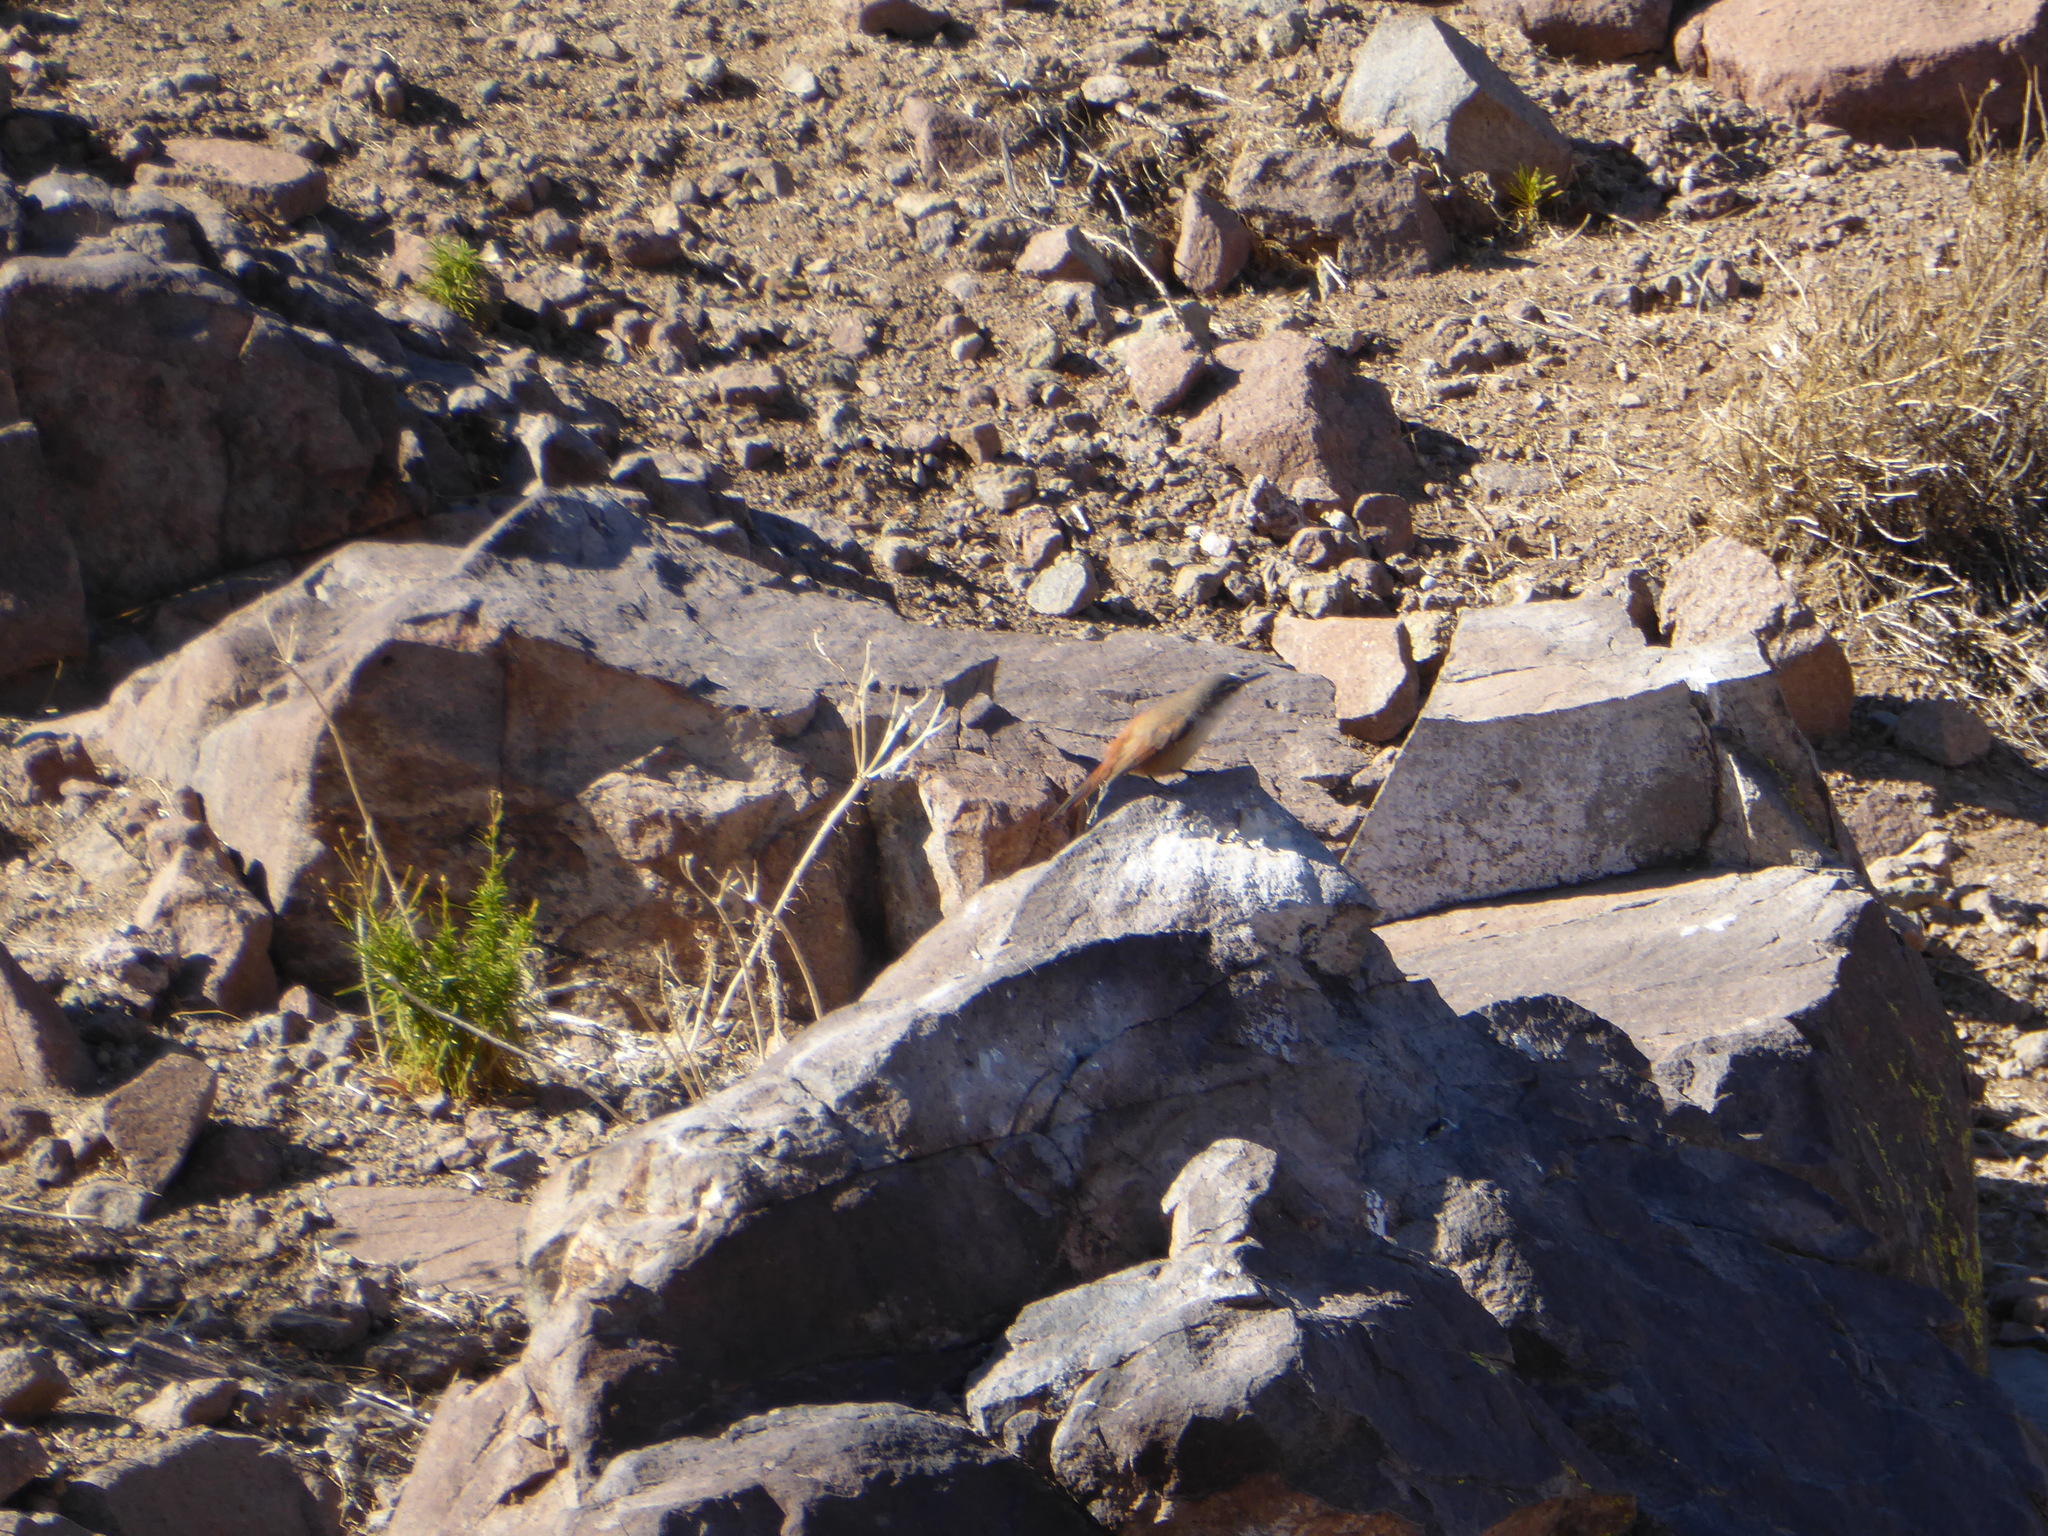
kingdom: Animalia
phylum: Chordata
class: Aves
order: Passeriformes
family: Furnariidae
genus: Chilia
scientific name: Chilia melanura
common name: Crag chilia
